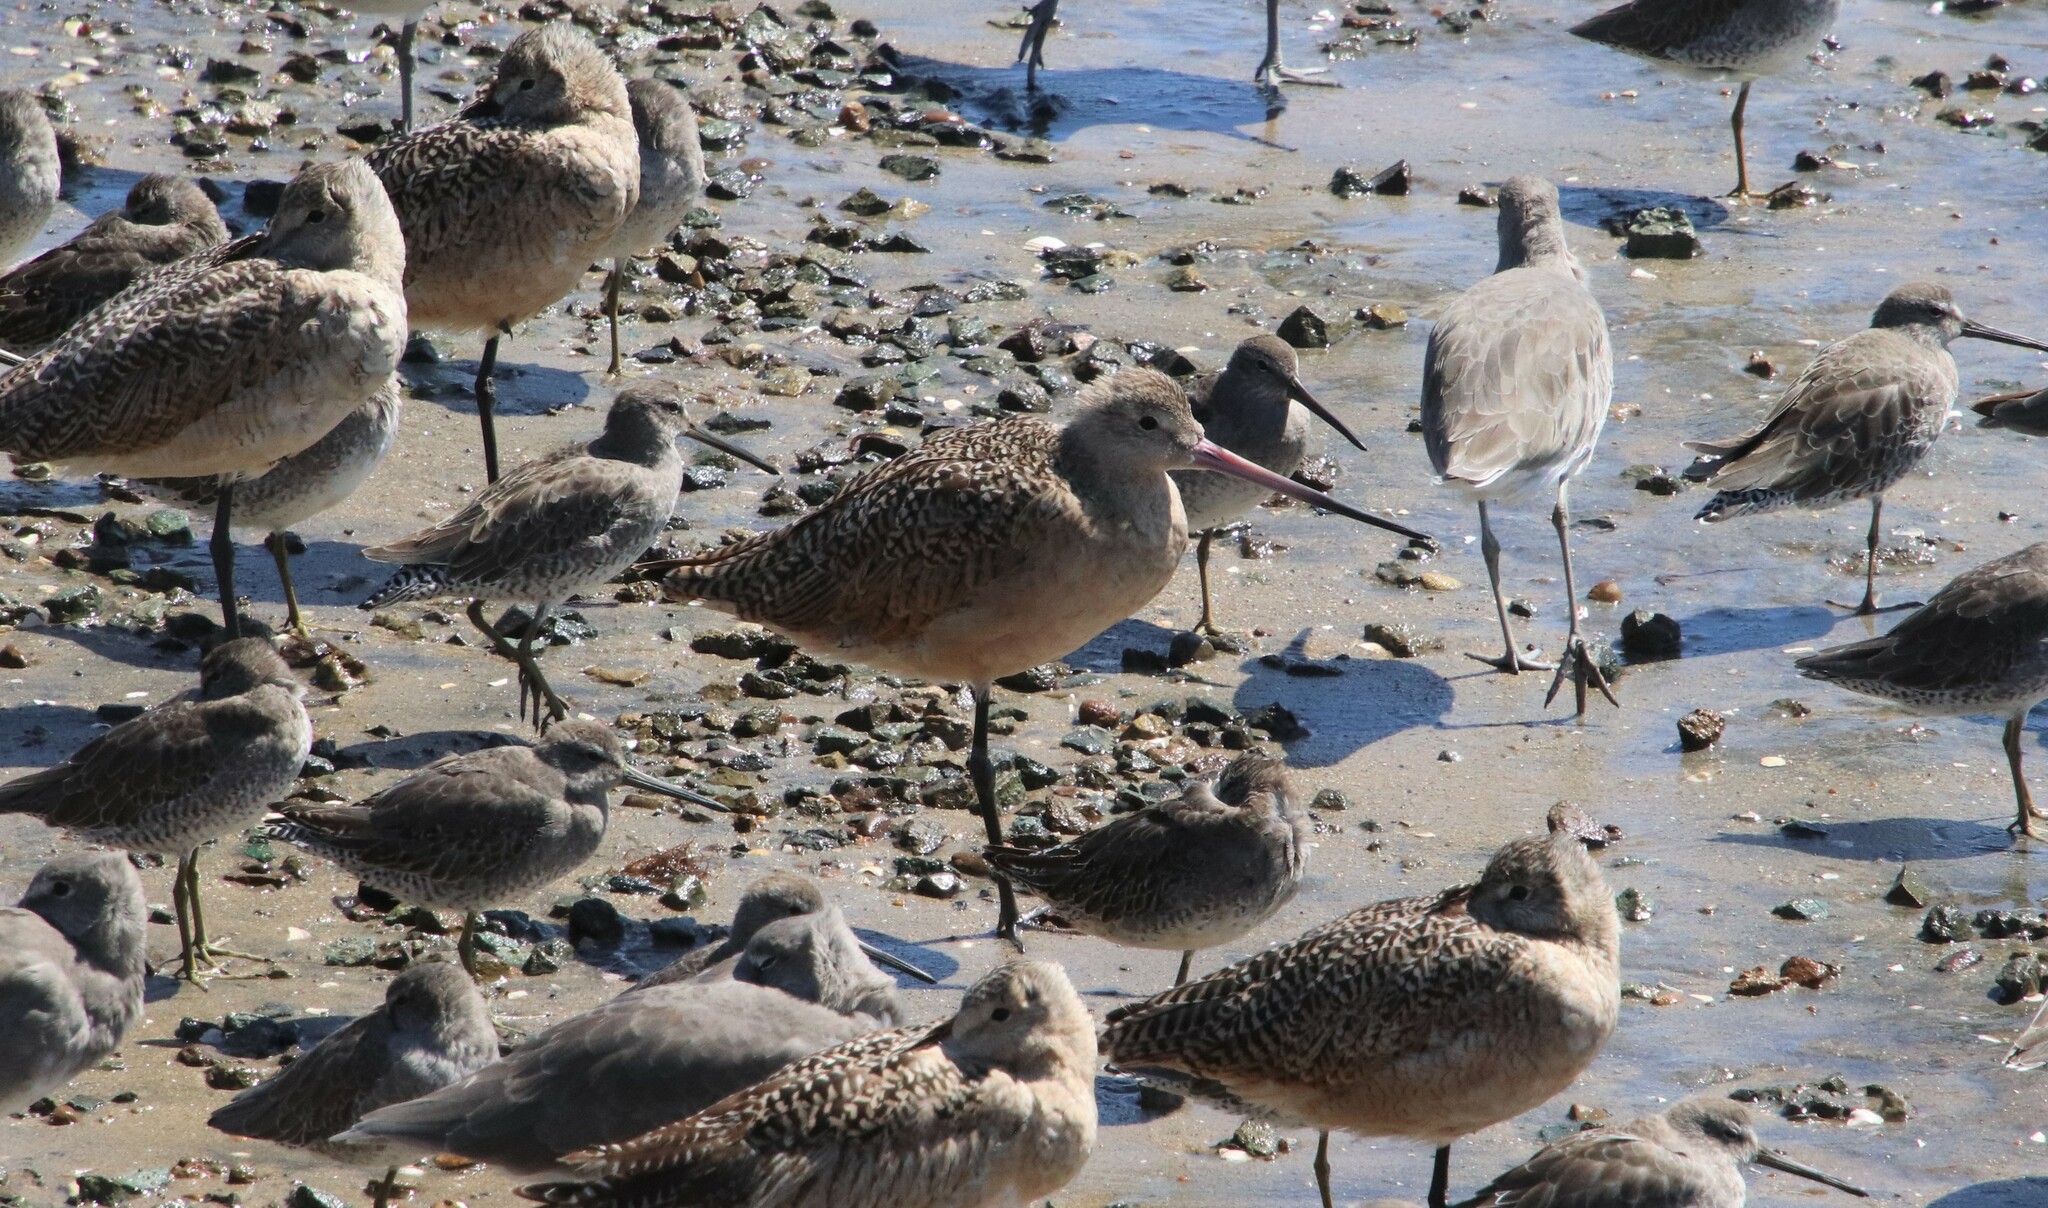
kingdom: Animalia
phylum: Chordata
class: Aves
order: Charadriiformes
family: Scolopacidae
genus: Limosa
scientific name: Limosa fedoa
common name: Marbled godwit
